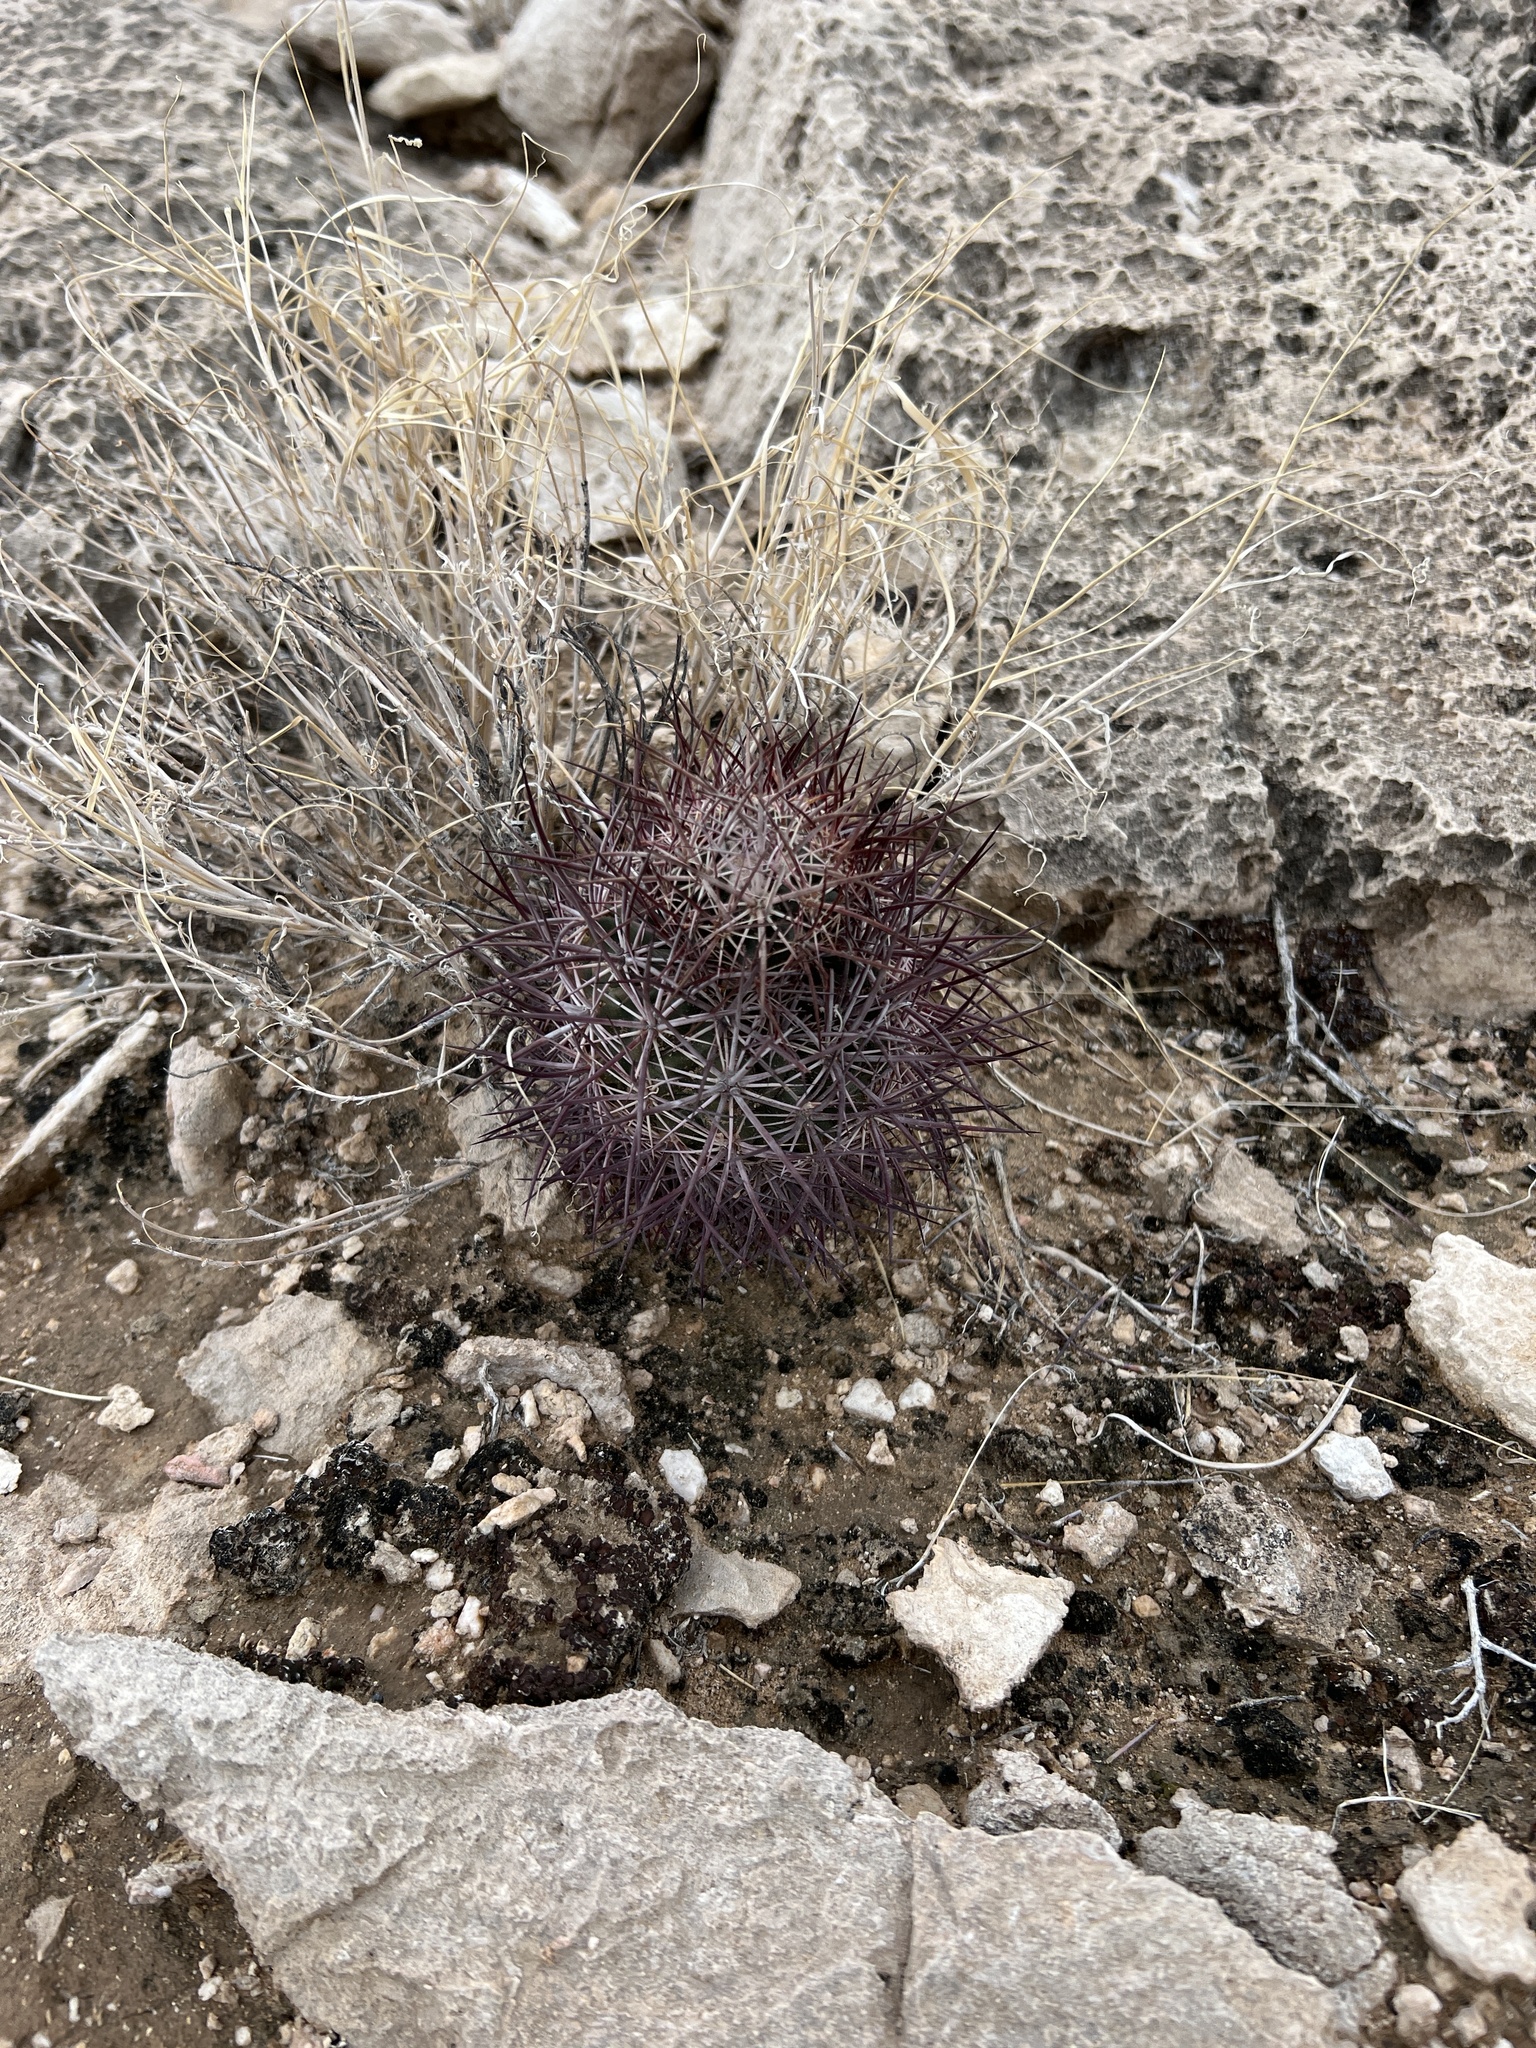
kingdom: Plantae
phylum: Tracheophyta
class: Magnoliopsida
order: Caryophyllales
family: Cactaceae
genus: Sclerocactus
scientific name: Sclerocactus johnsonii
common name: Eight-spine fishhook cactus
